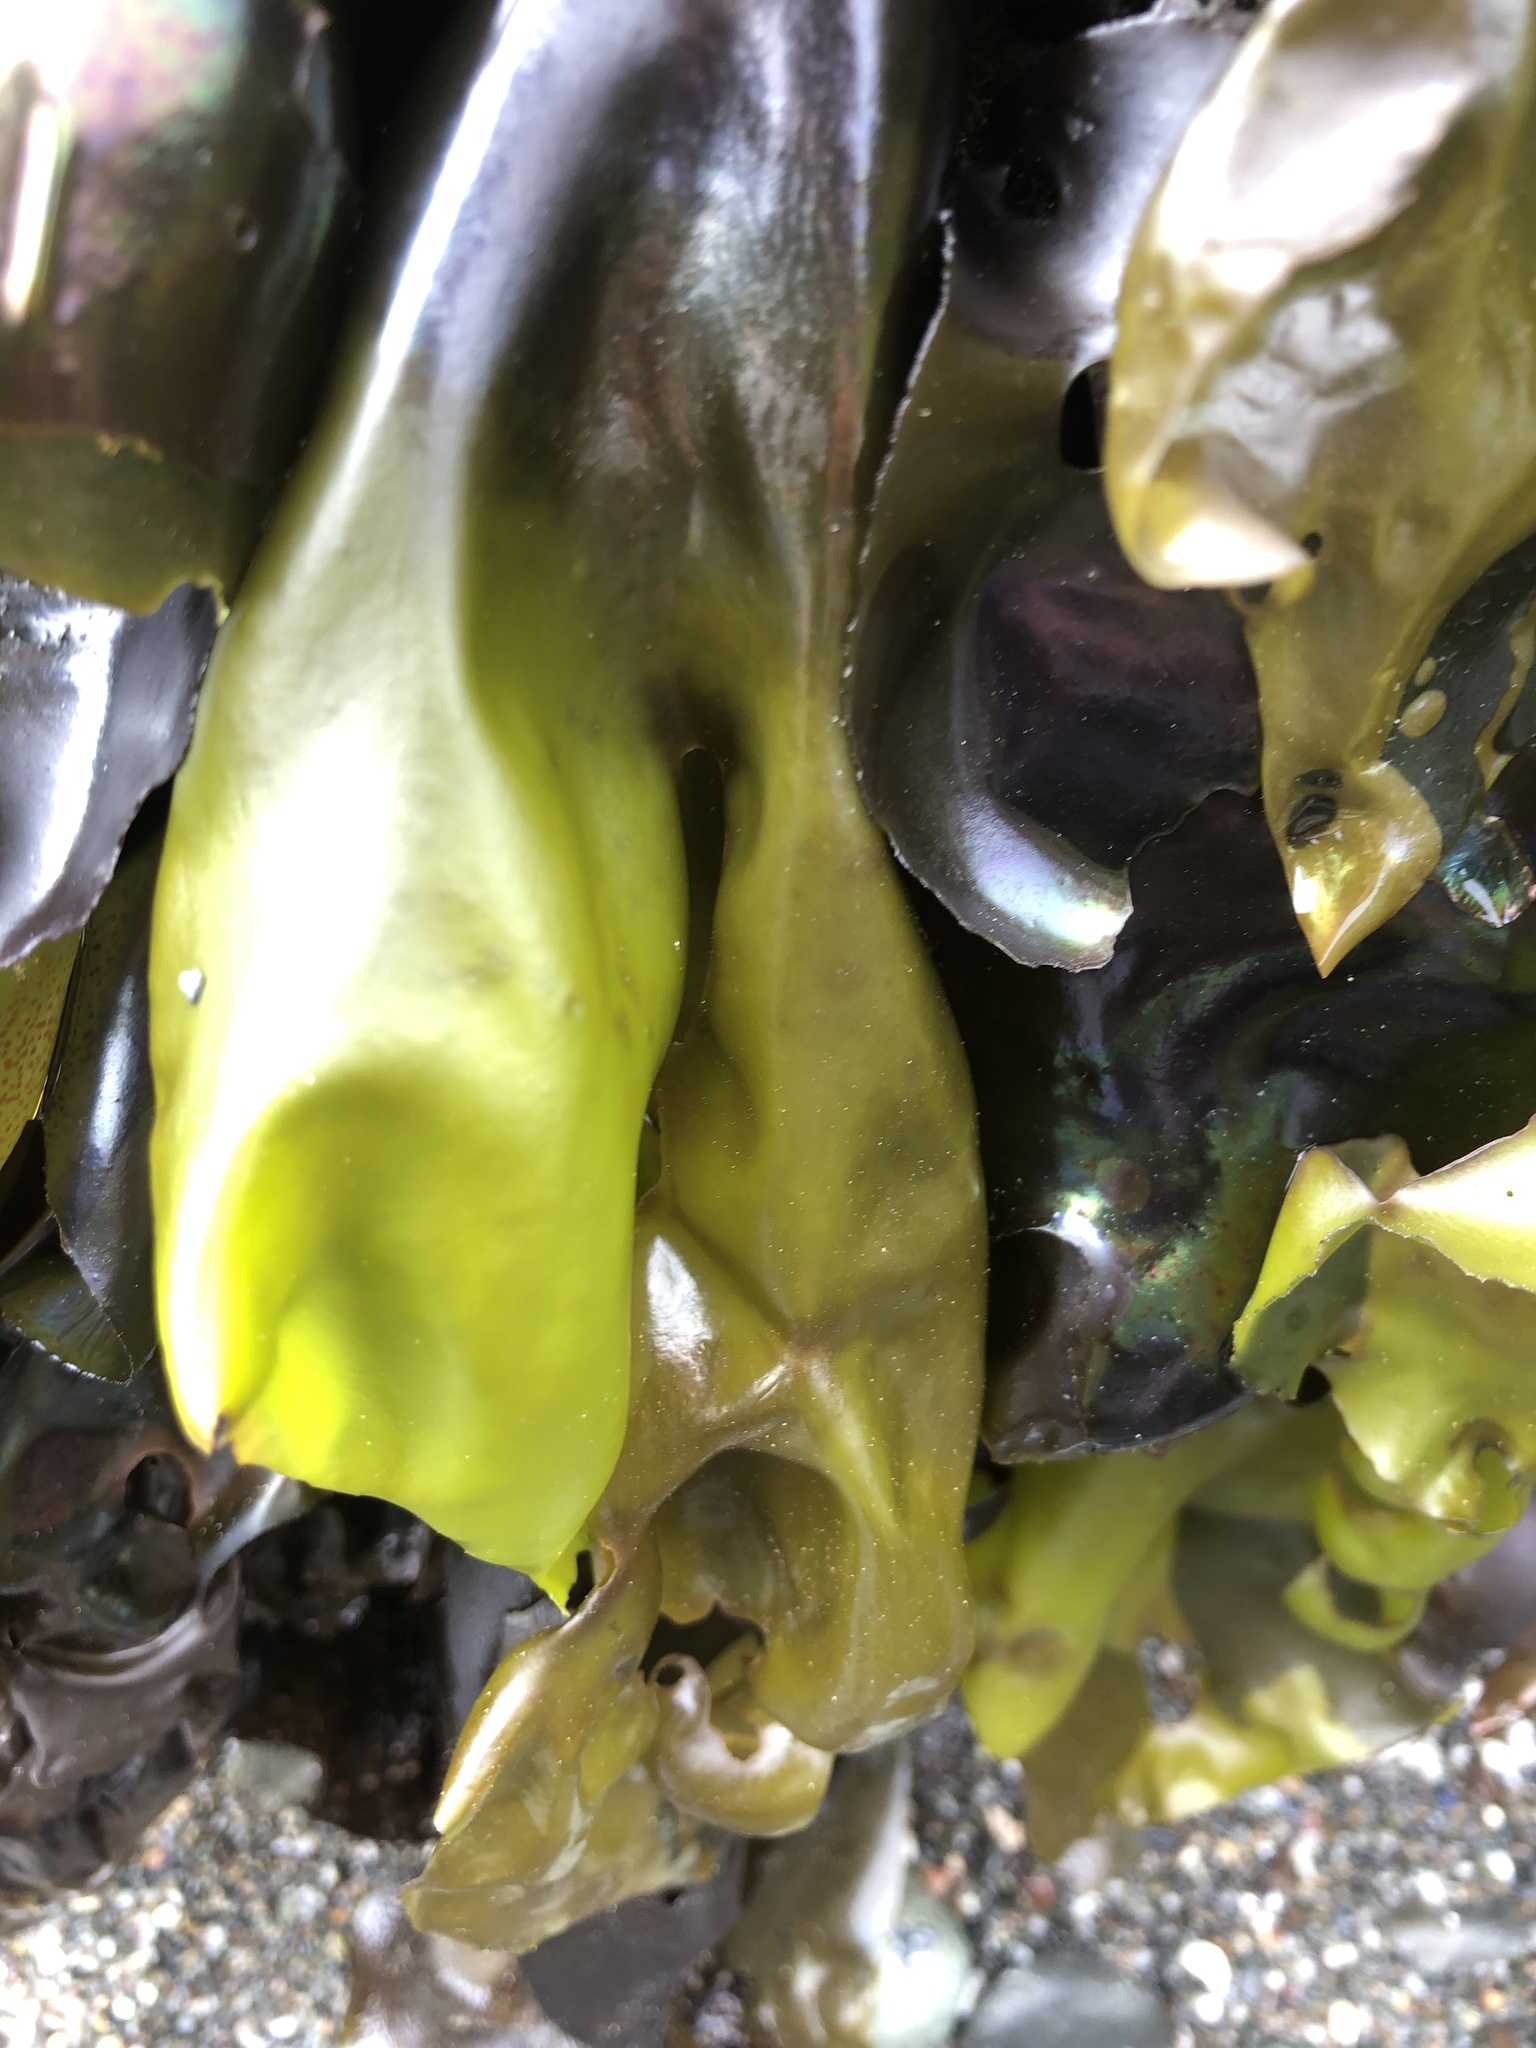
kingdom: Plantae
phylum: Rhodophyta
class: Florideophyceae
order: Gigartinales
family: Gigartinaceae
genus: Mazzaella
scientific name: Mazzaella flaccida
